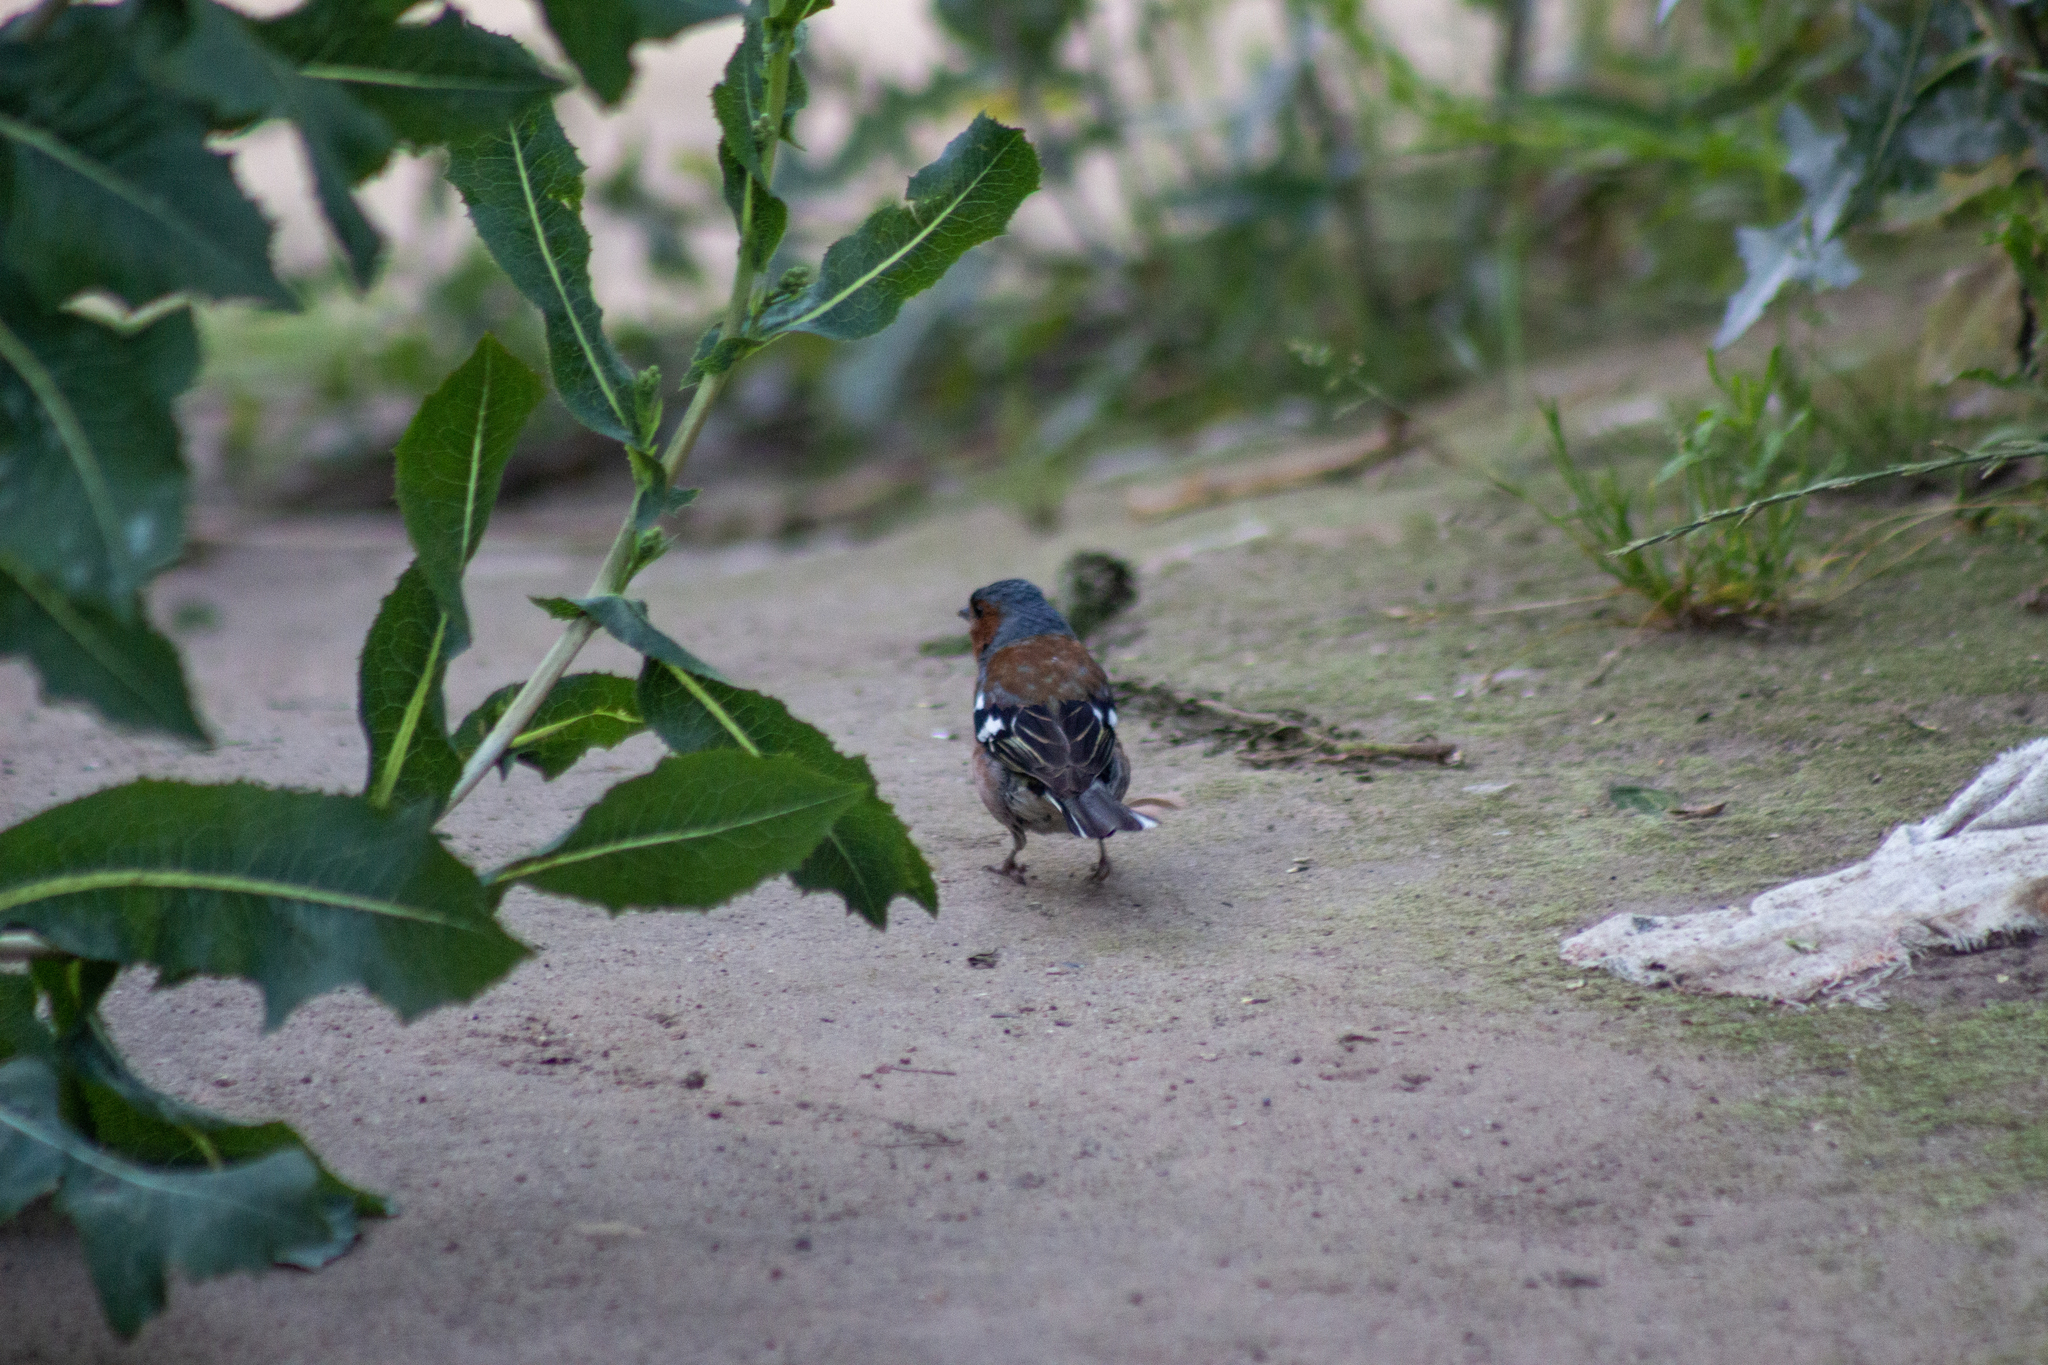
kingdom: Animalia
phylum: Chordata
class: Aves
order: Passeriformes
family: Fringillidae
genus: Fringilla
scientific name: Fringilla coelebs
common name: Common chaffinch
